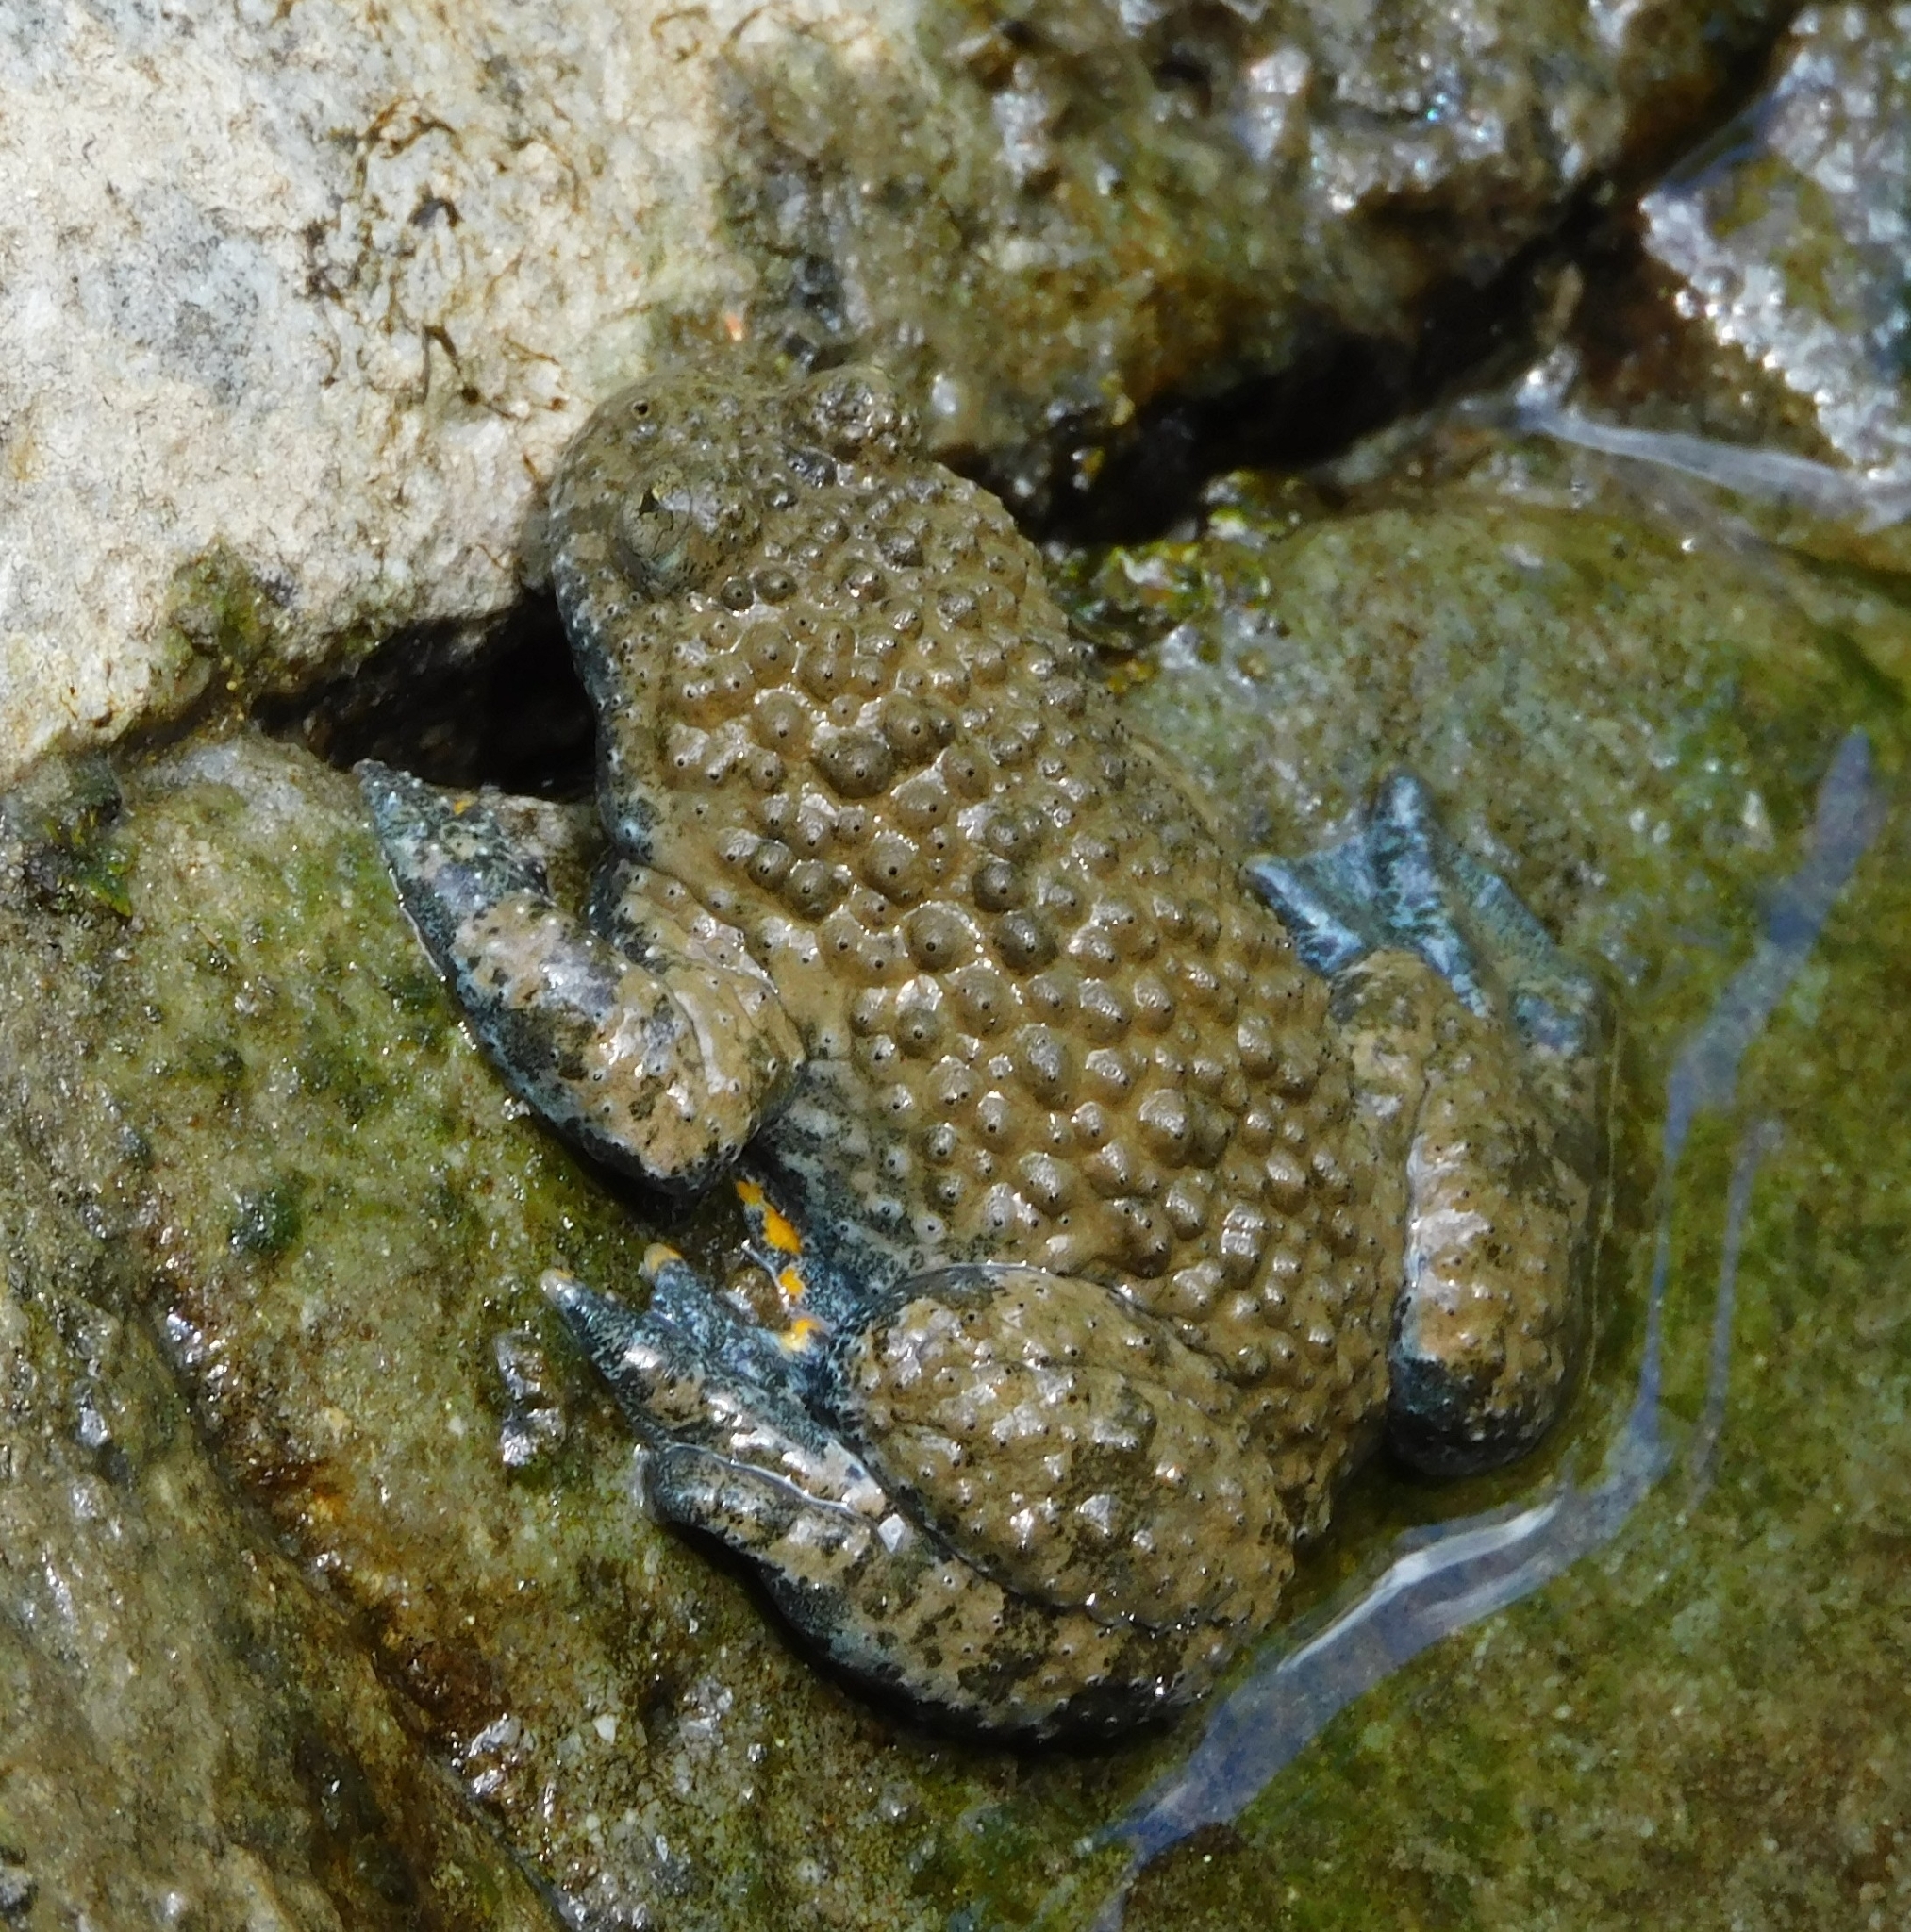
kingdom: Animalia
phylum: Chordata
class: Amphibia
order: Anura
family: Bombinatoridae
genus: Bombina
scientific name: Bombina variegata
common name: Yellow-bellied toad
